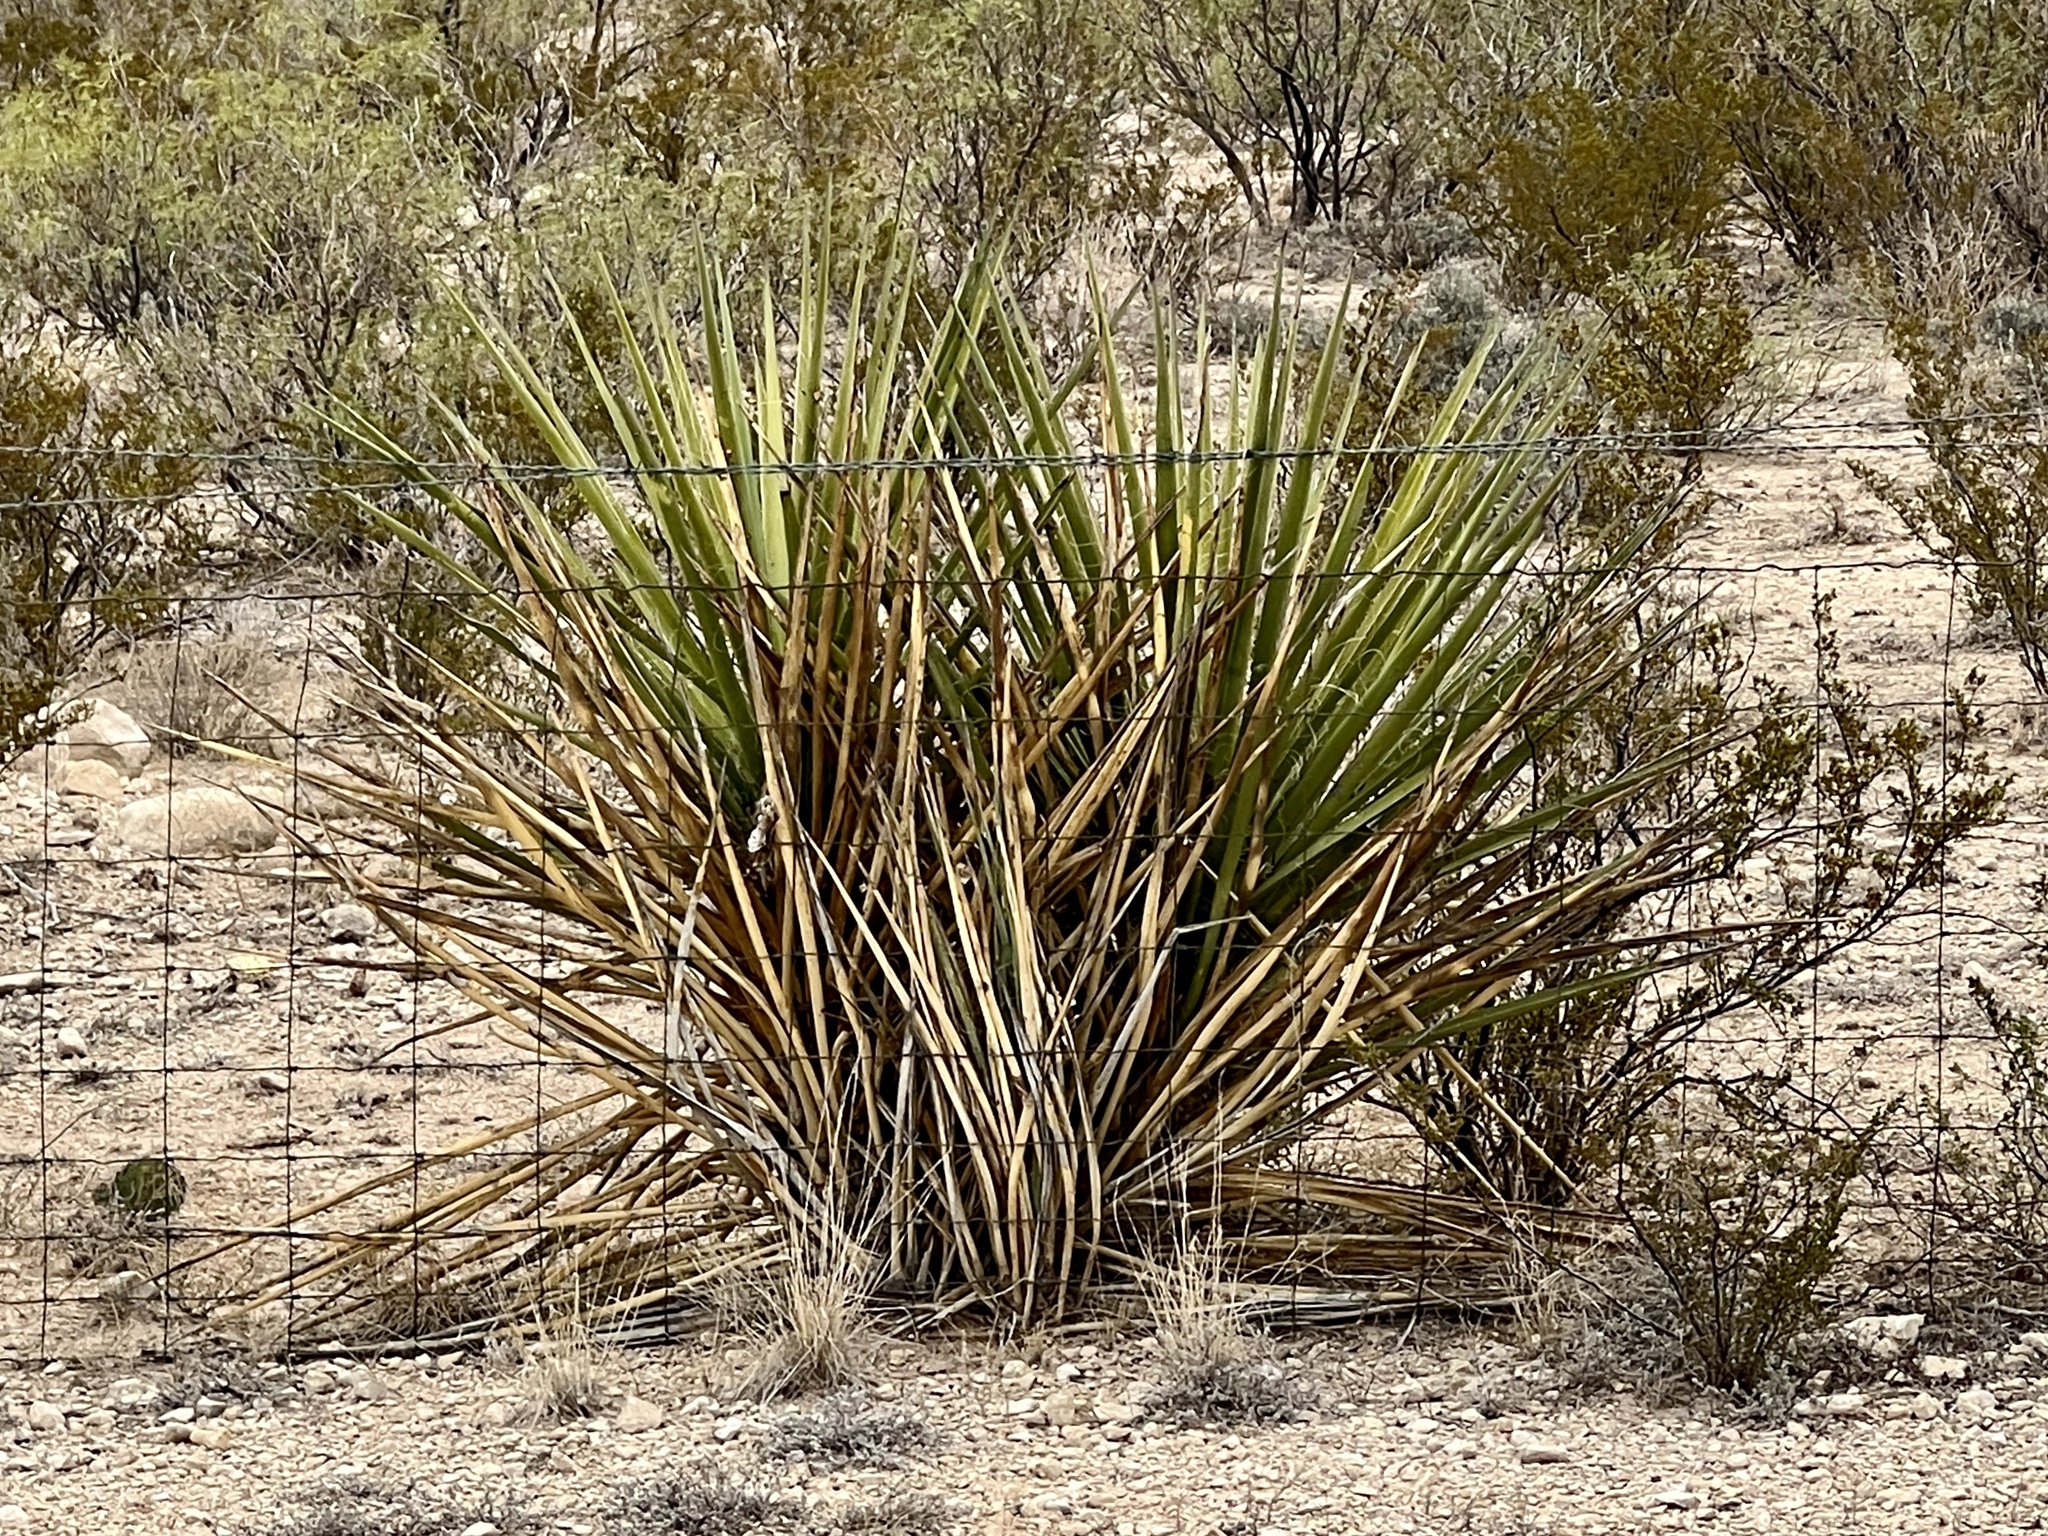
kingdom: Plantae
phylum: Tracheophyta
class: Liliopsida
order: Asparagales
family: Asparagaceae
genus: Yucca
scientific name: Yucca treculiana
